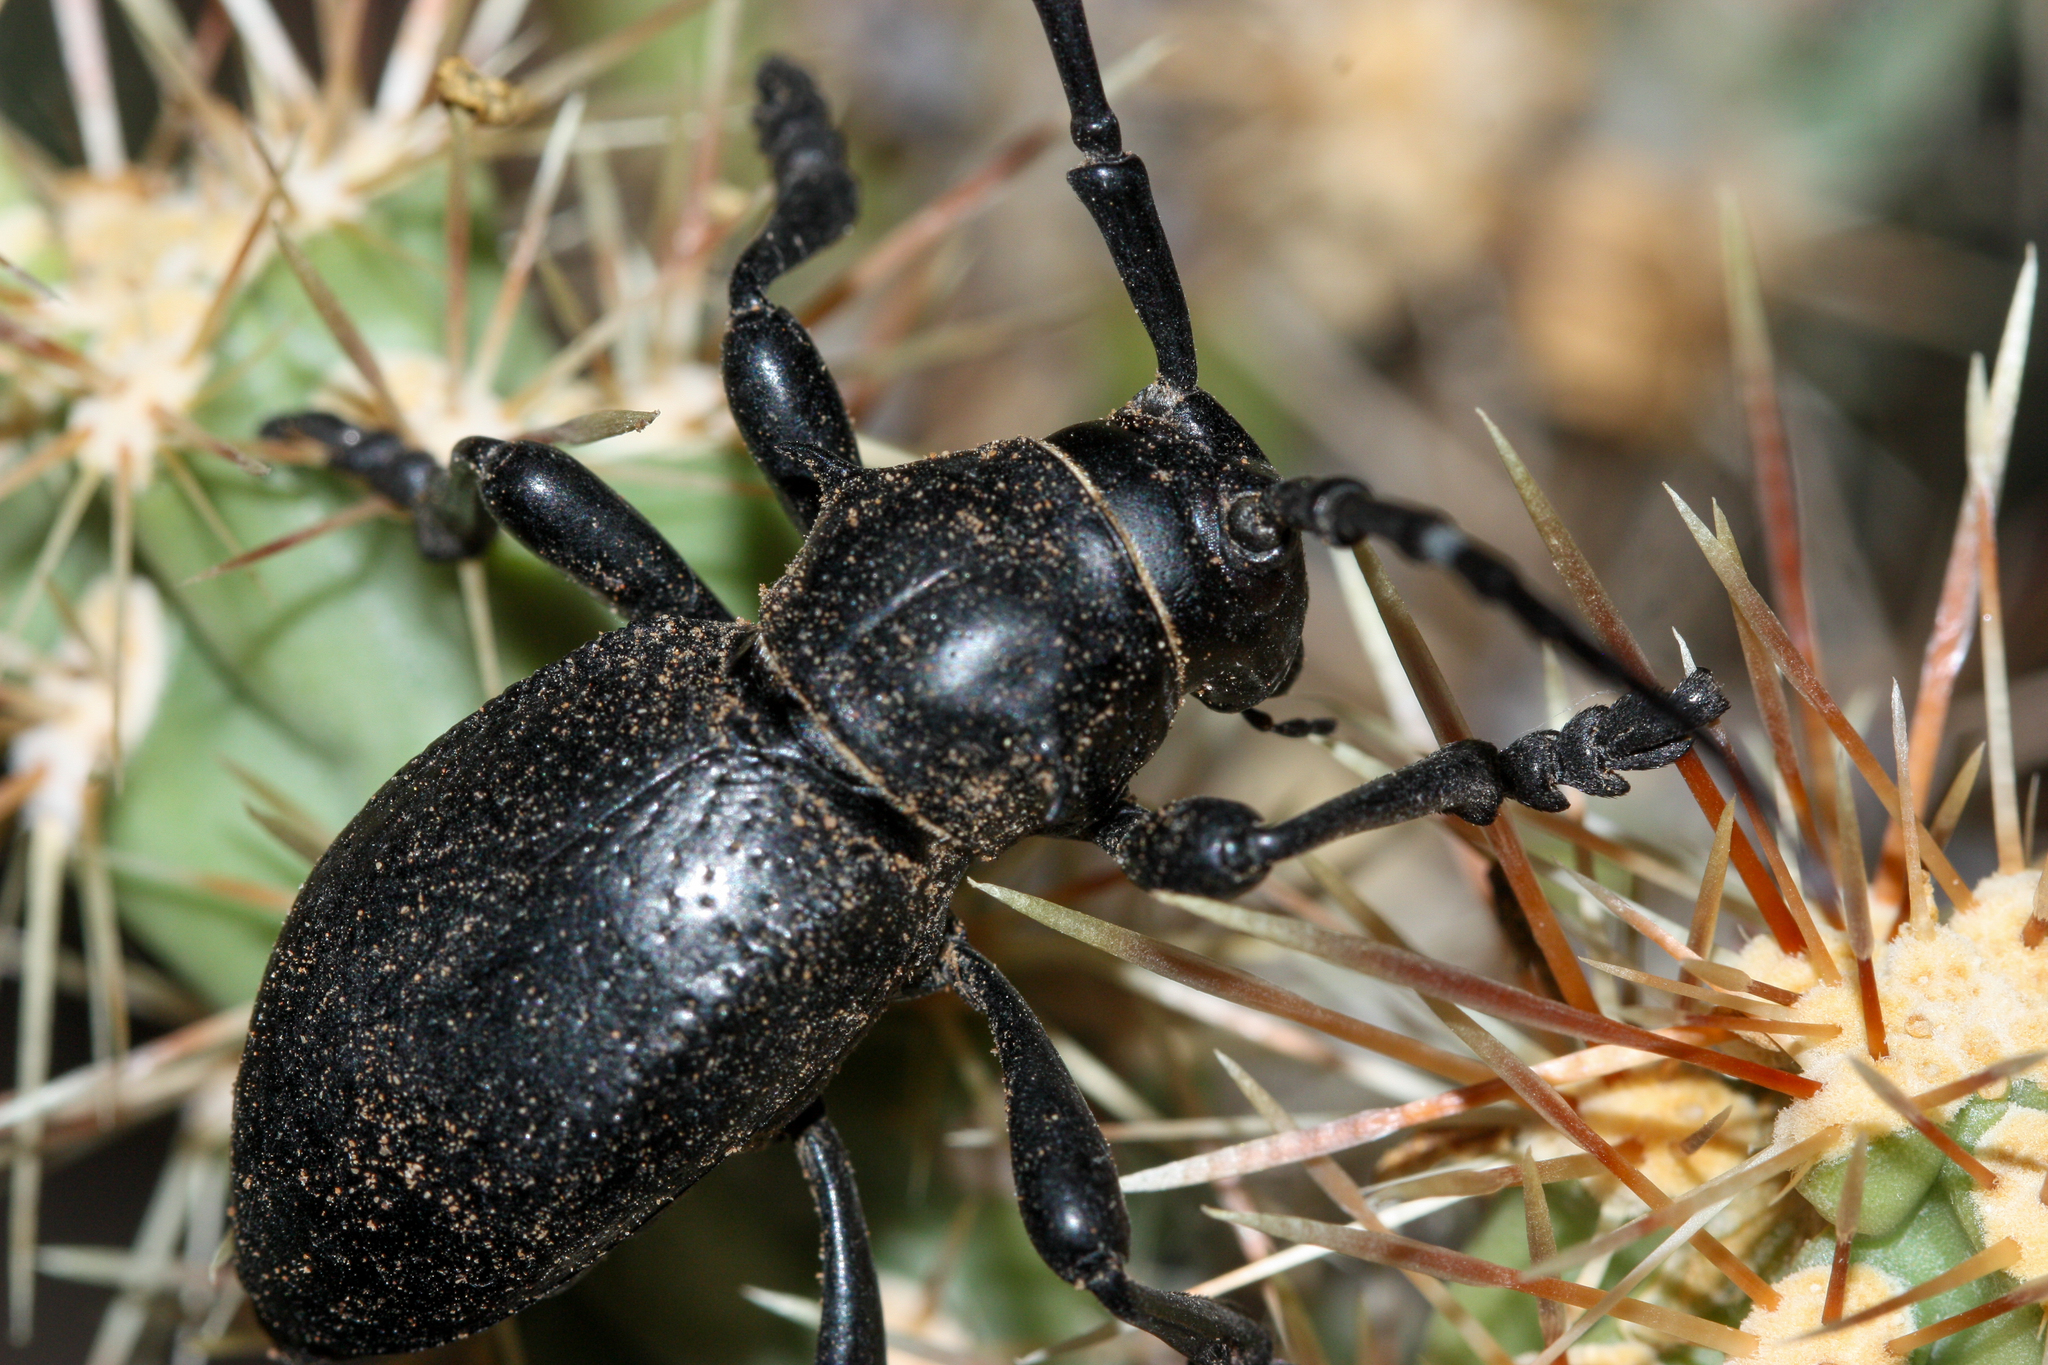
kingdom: Animalia
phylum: Arthropoda
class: Insecta
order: Coleoptera
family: Cerambycidae
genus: Moneilema
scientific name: Moneilema gigas
